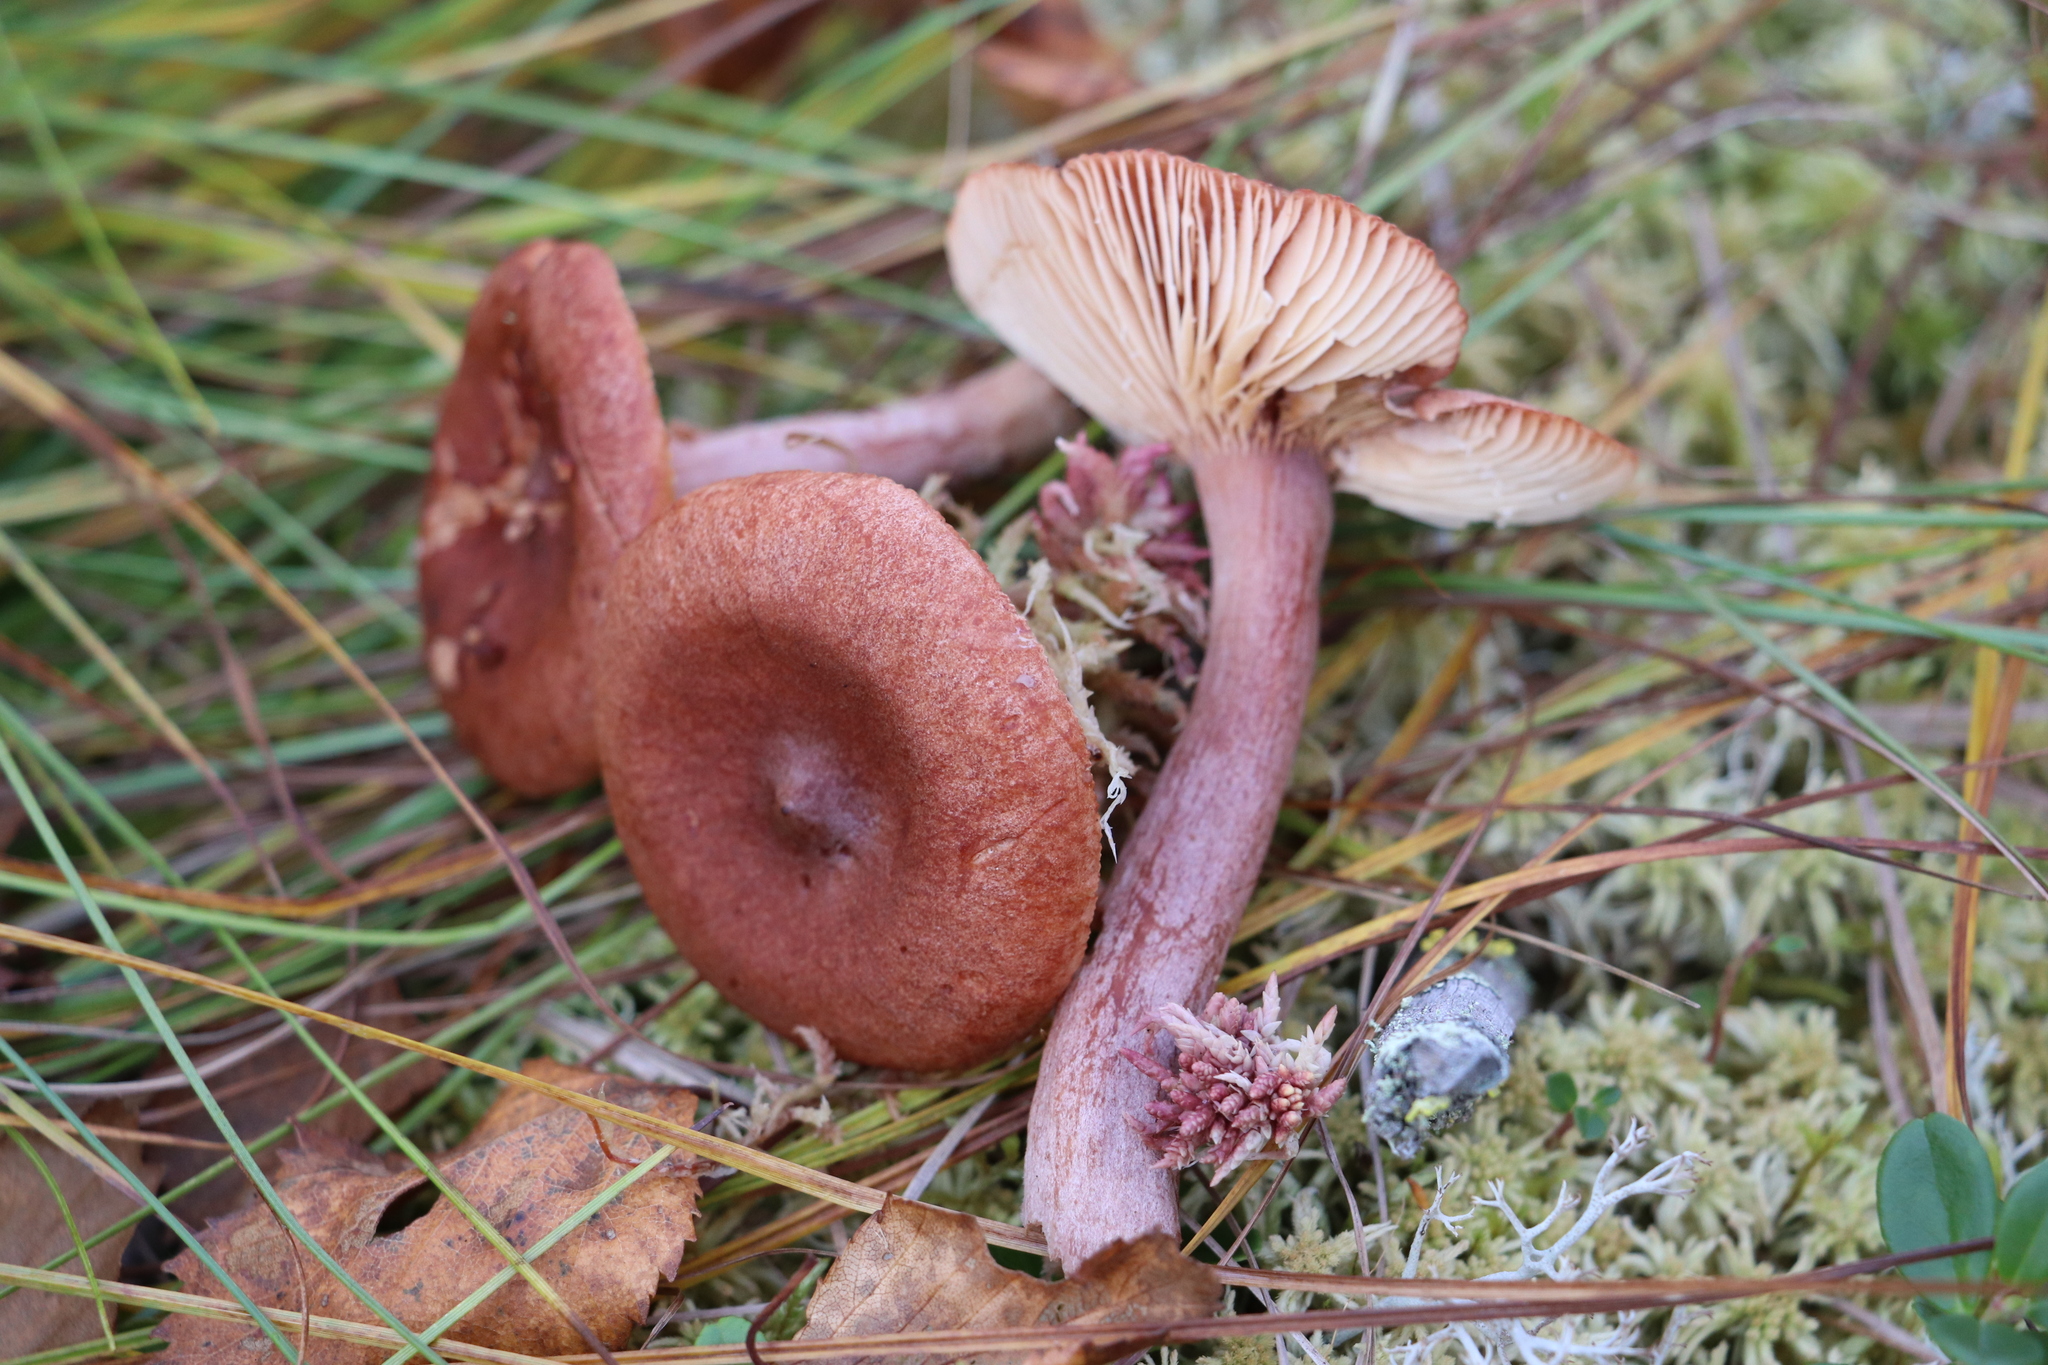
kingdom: Fungi
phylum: Basidiomycota
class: Agaricomycetes
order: Russulales
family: Russulaceae
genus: Lactarius
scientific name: Lactarius rufus
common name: Rufous milk-cap
